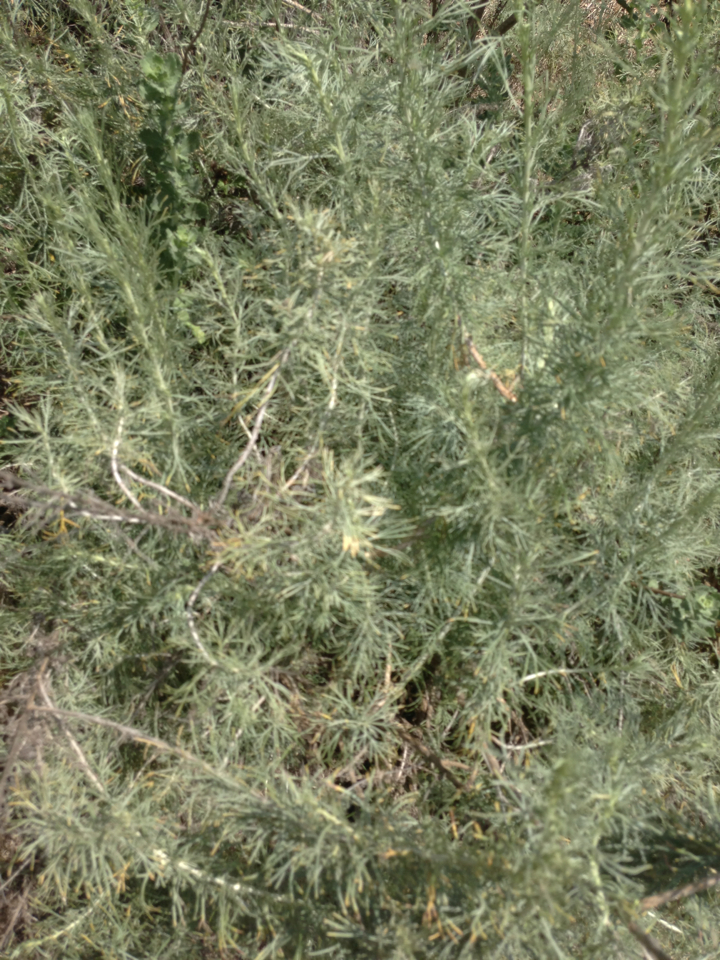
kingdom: Plantae
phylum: Tracheophyta
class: Magnoliopsida
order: Asterales
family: Asteraceae
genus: Artemisia
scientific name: Artemisia californica
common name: California sagebrush
